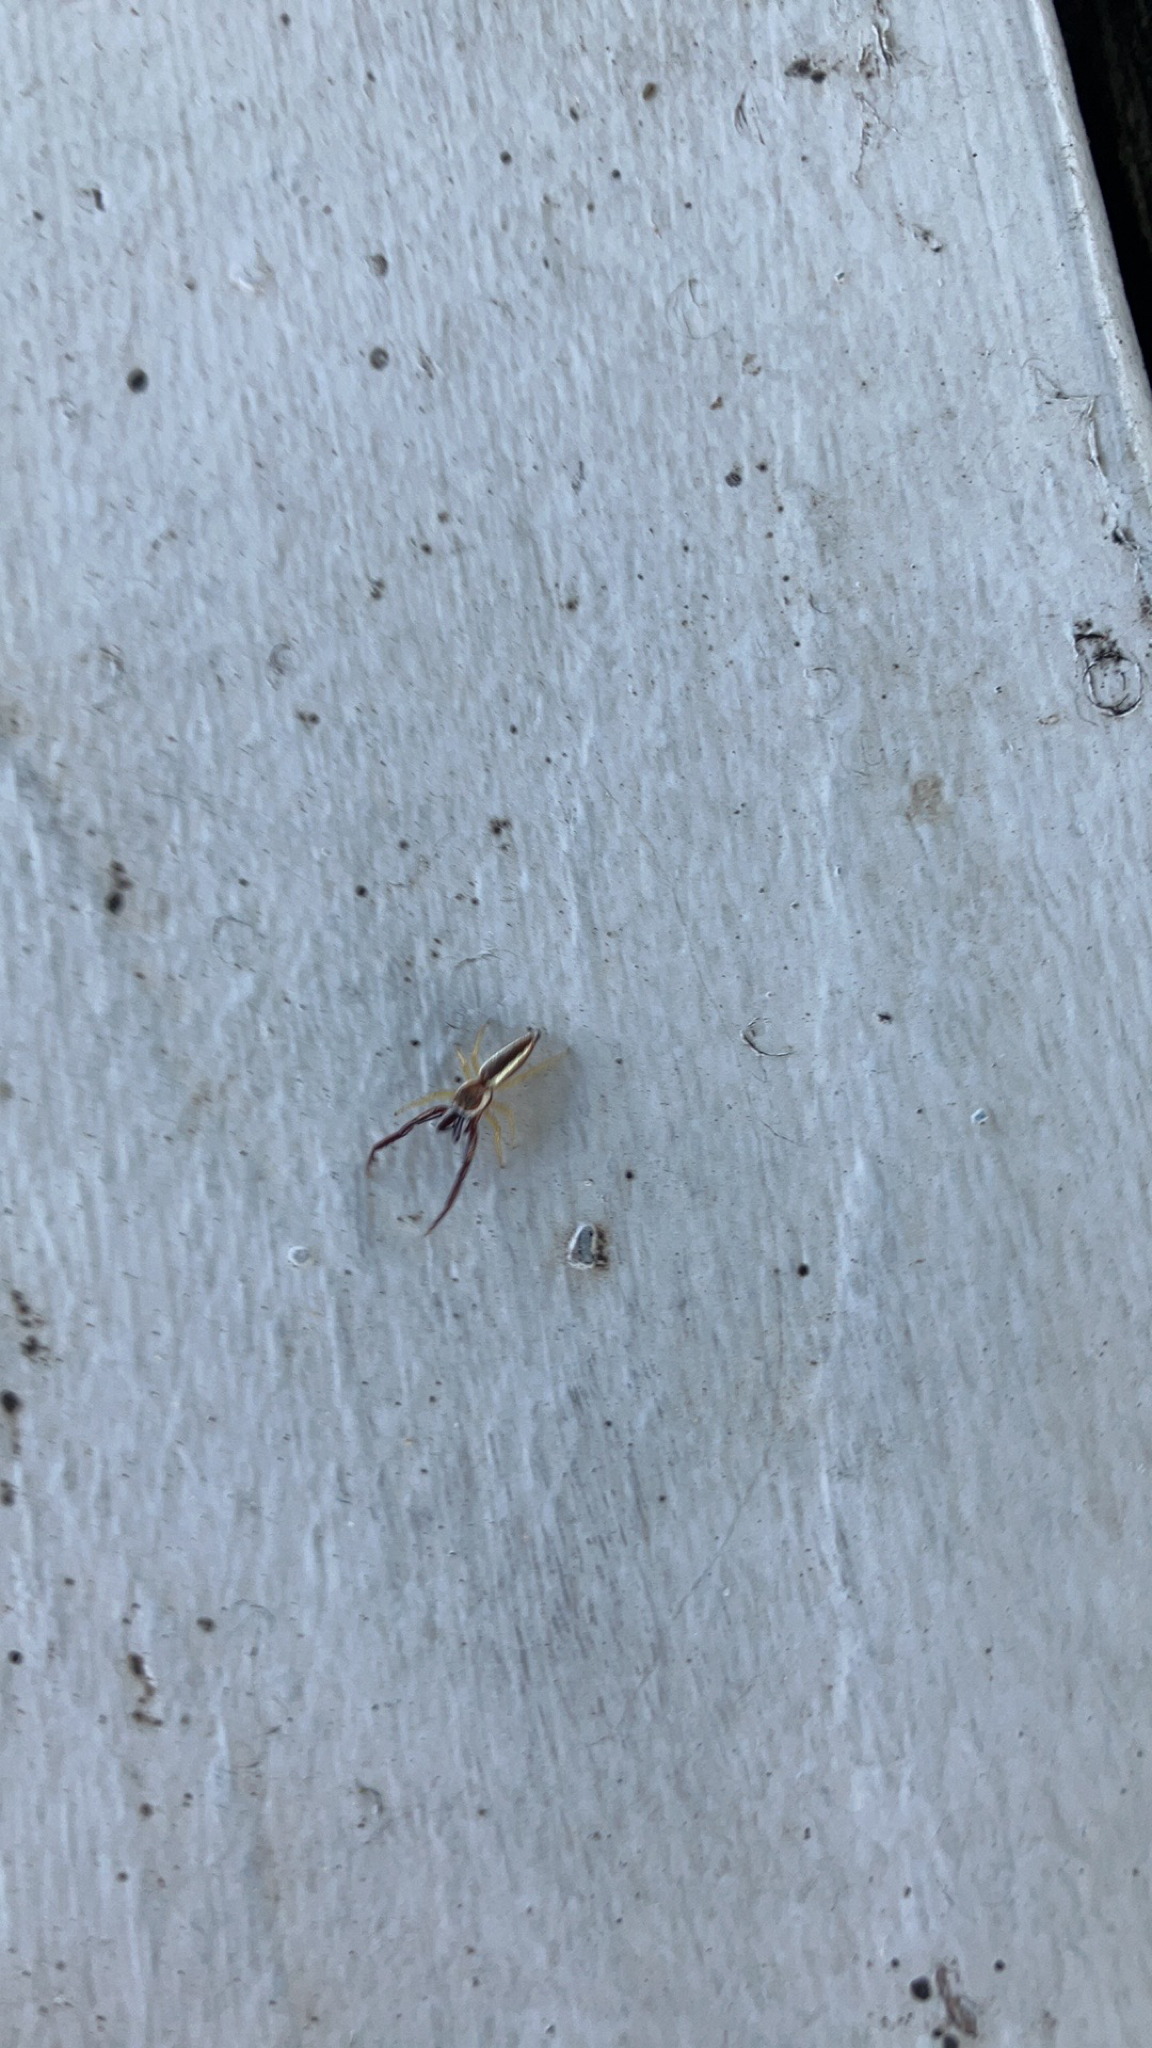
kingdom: Animalia
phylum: Arthropoda
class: Arachnida
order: Araneae
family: Salticidae
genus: Hentzia
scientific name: Hentzia palmarum
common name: Common hentz jumping spider
